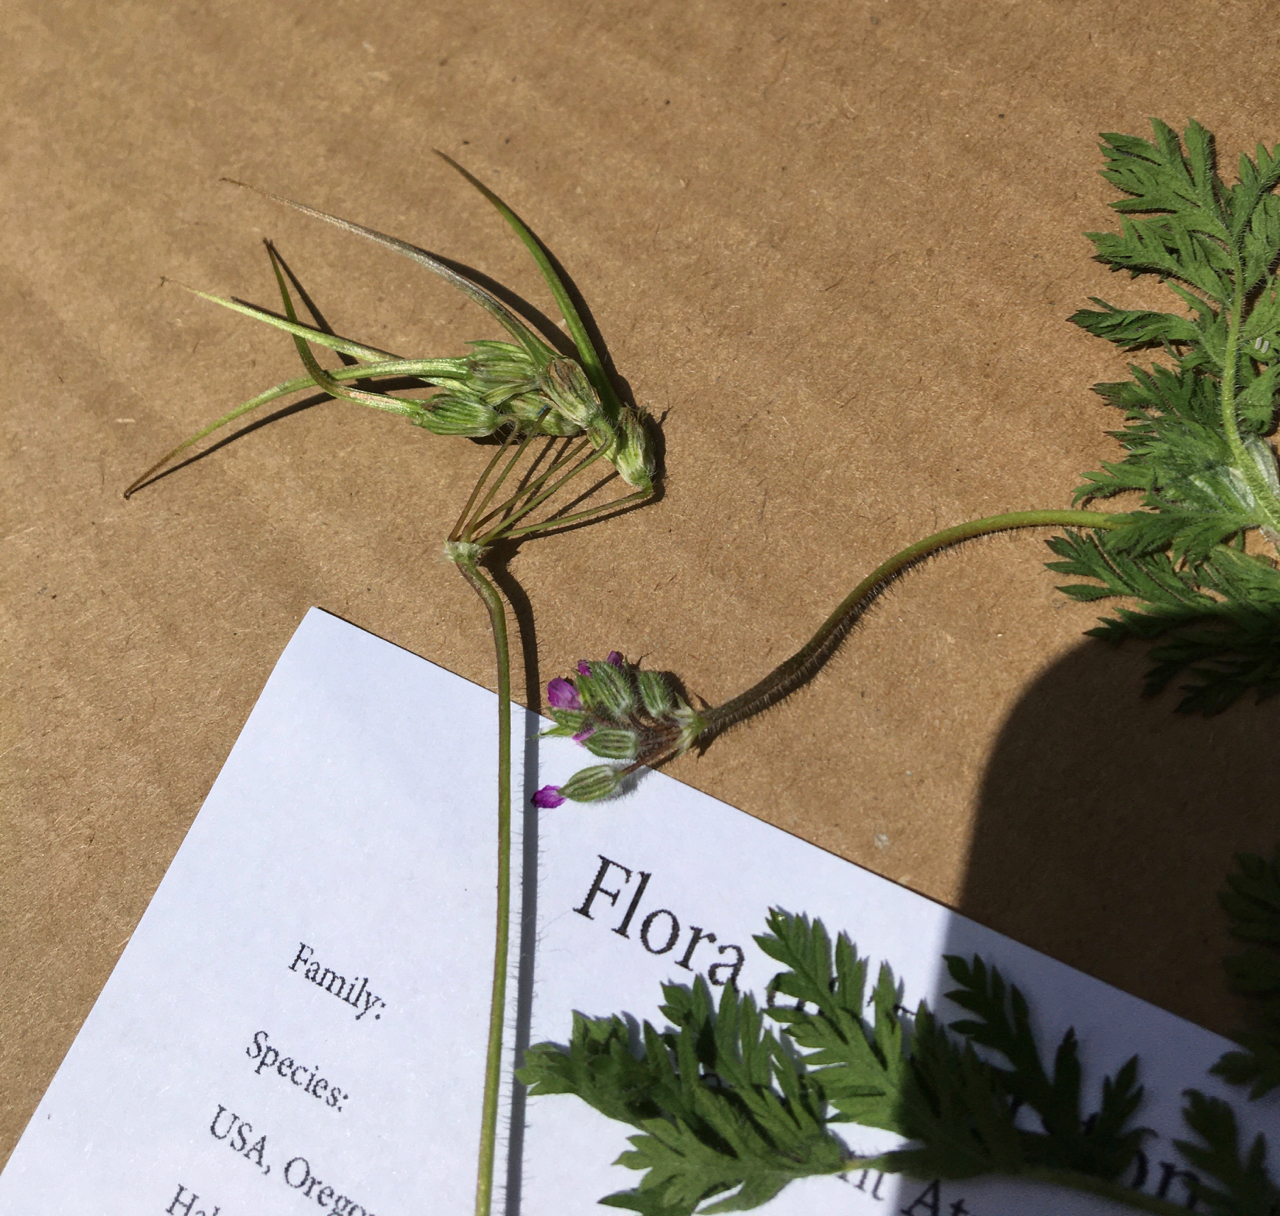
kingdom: Plantae
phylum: Tracheophyta
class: Magnoliopsida
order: Geraniales
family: Geraniaceae
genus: Erodium
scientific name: Erodium cicutarium
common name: Common stork's-bill
